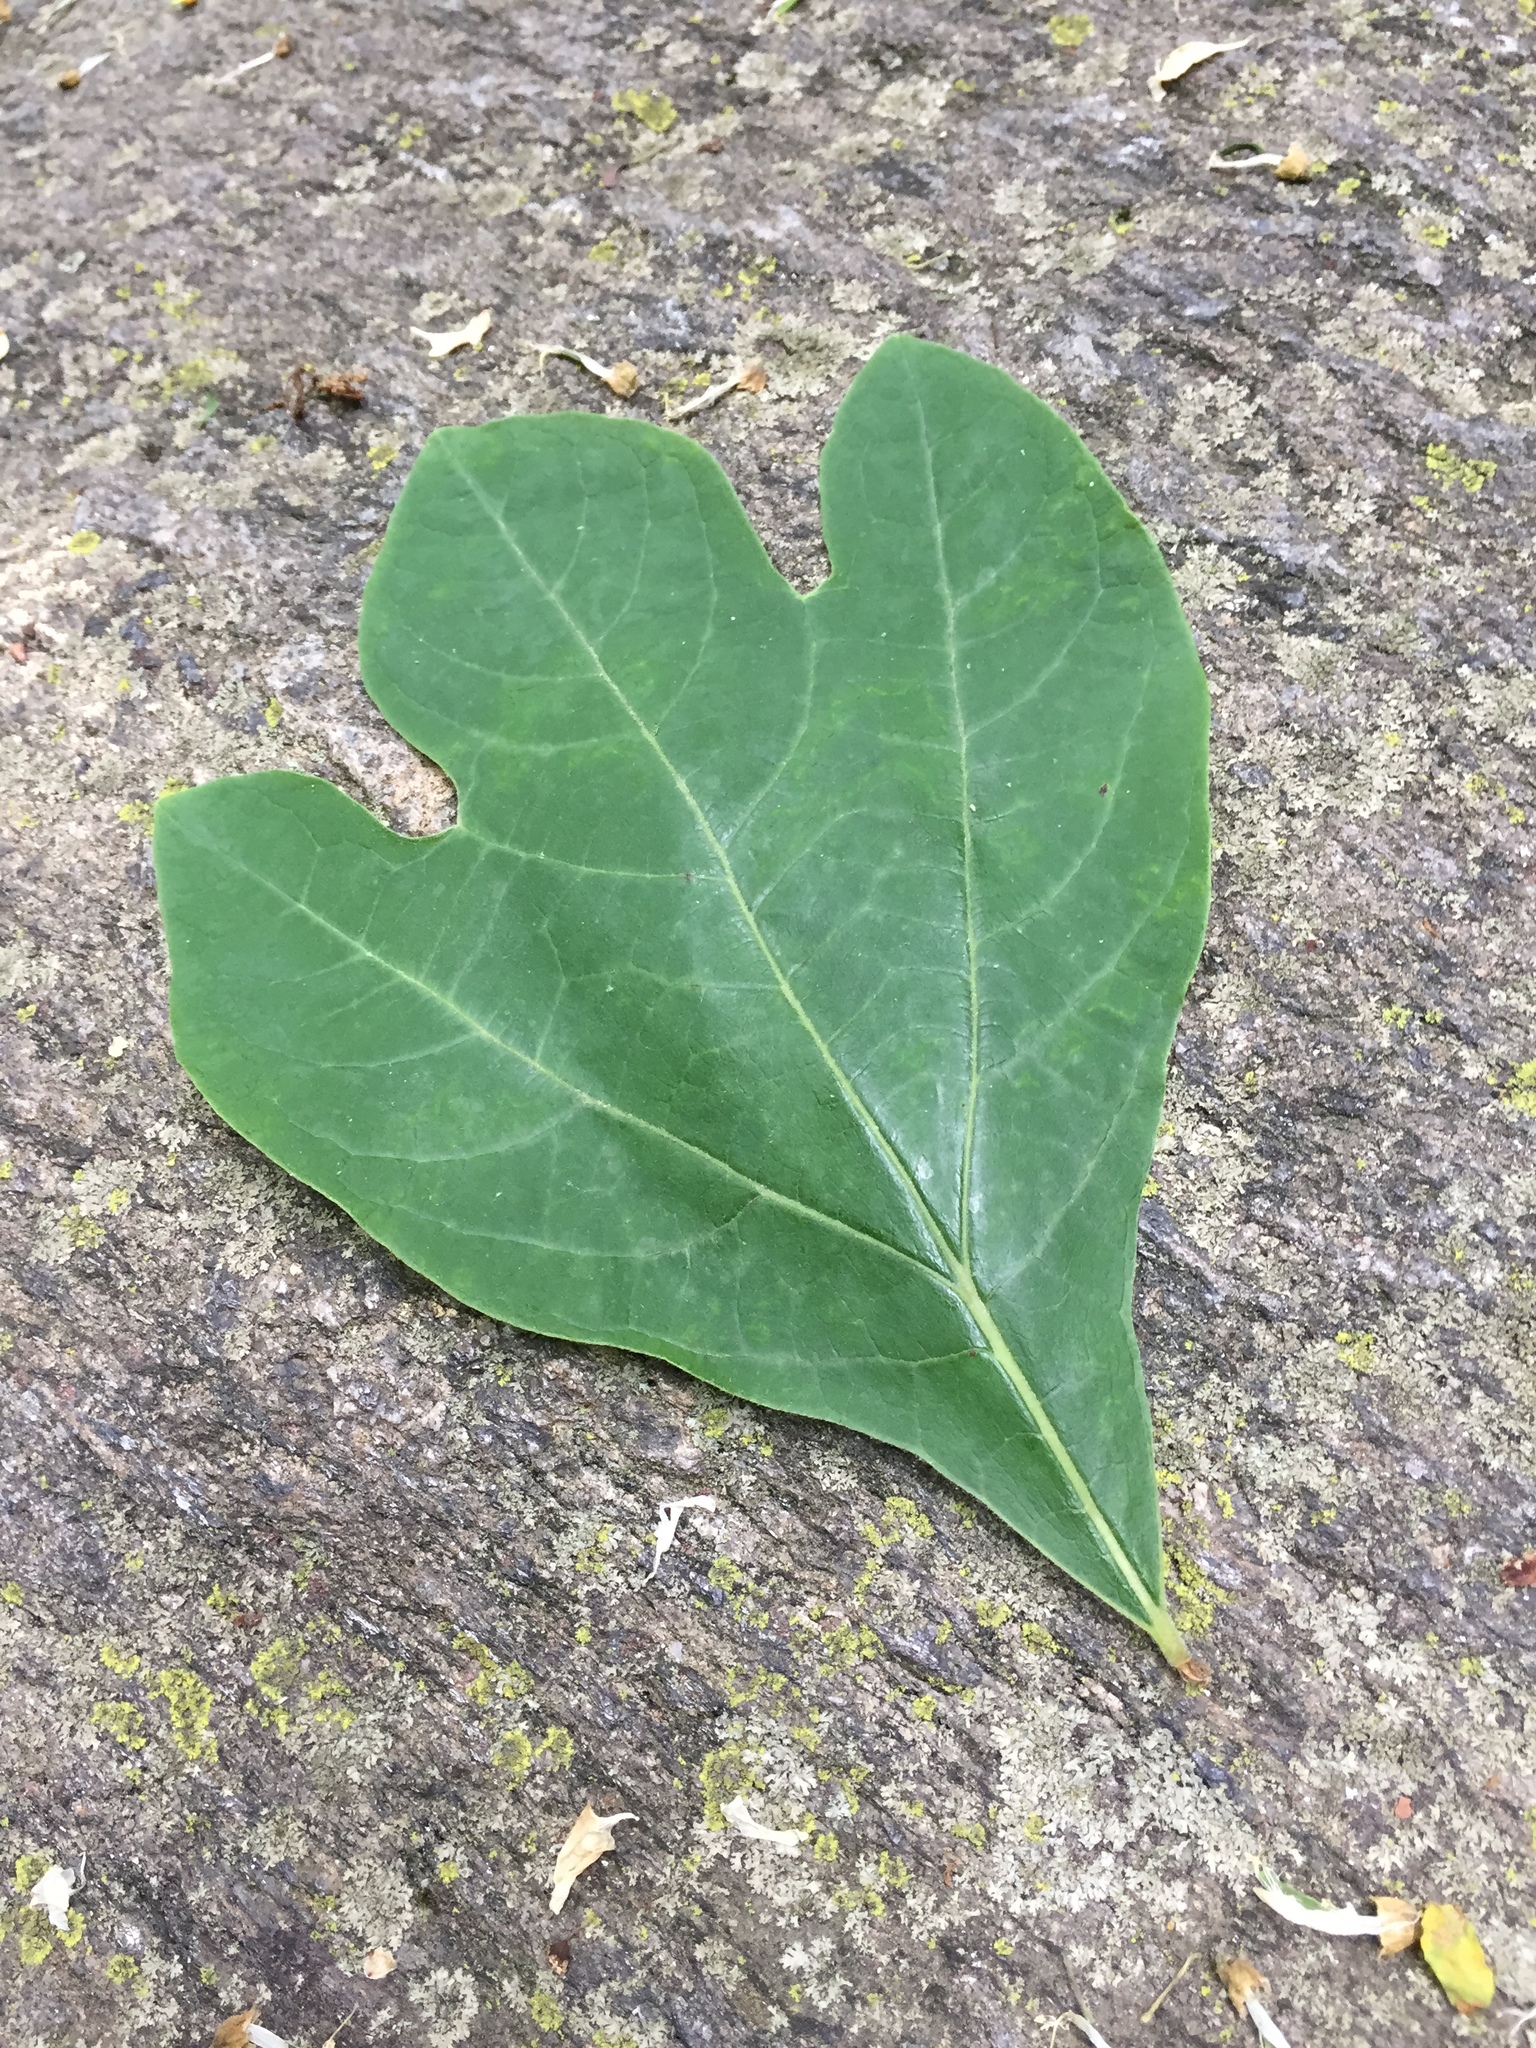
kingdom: Plantae
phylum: Tracheophyta
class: Magnoliopsida
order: Laurales
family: Lauraceae
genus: Sassafras
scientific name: Sassafras albidum
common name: Sassafras
